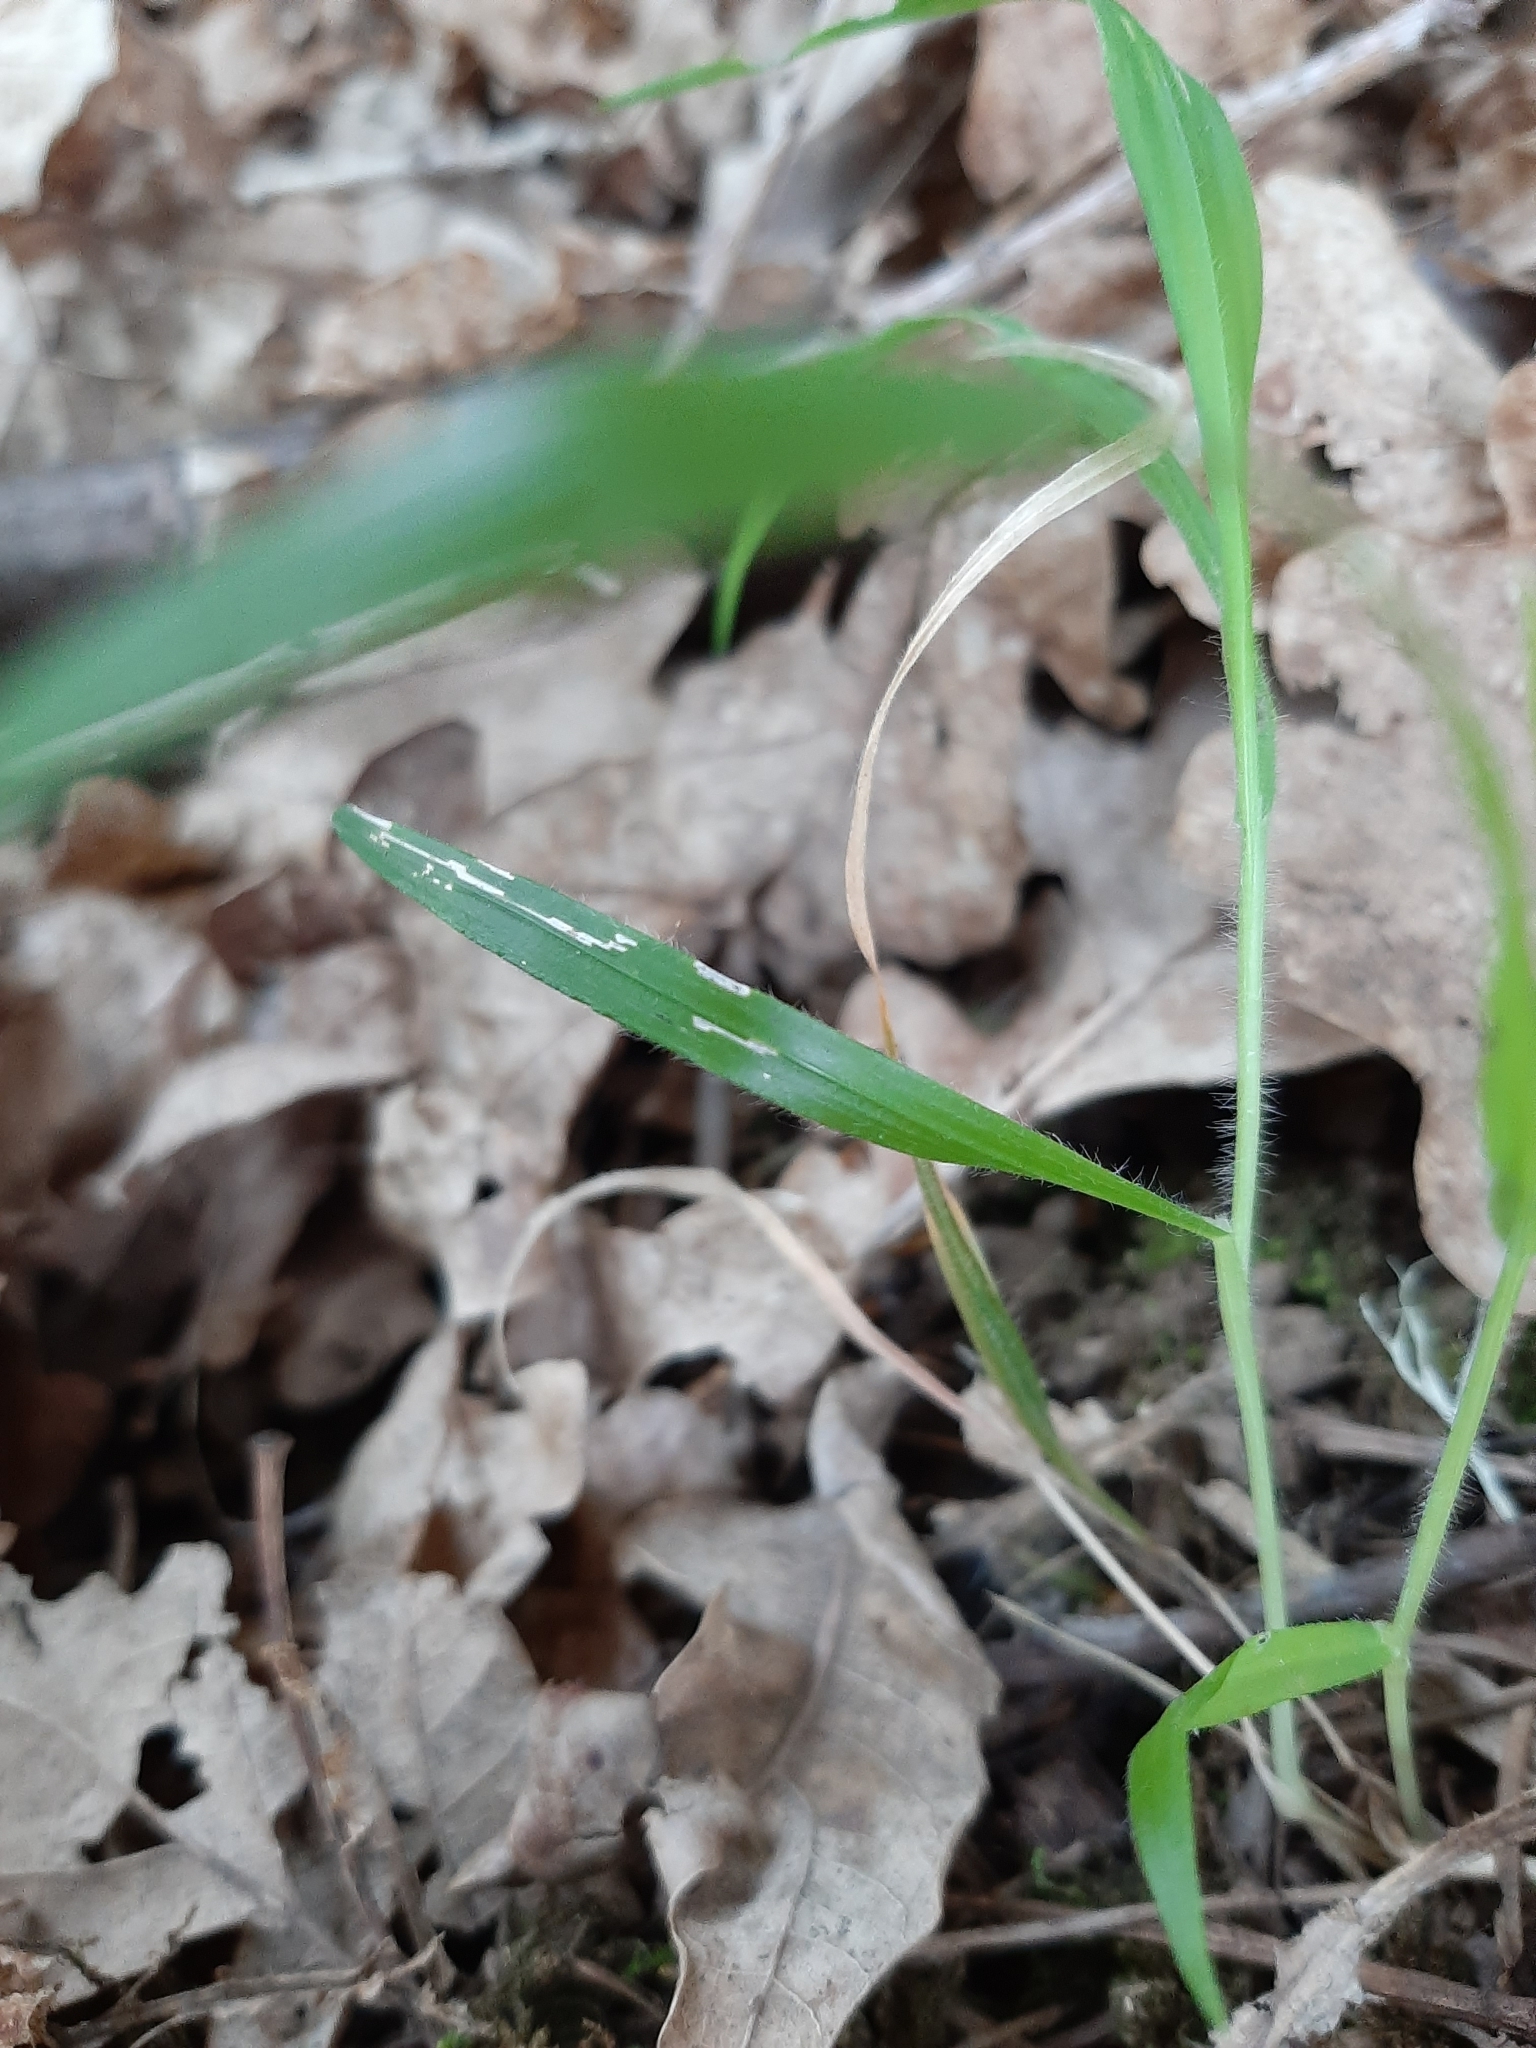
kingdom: Plantae
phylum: Tracheophyta
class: Liliopsida
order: Poales
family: Poaceae
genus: Brachypodium
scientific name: Brachypodium sylvaticum
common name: False-brome
